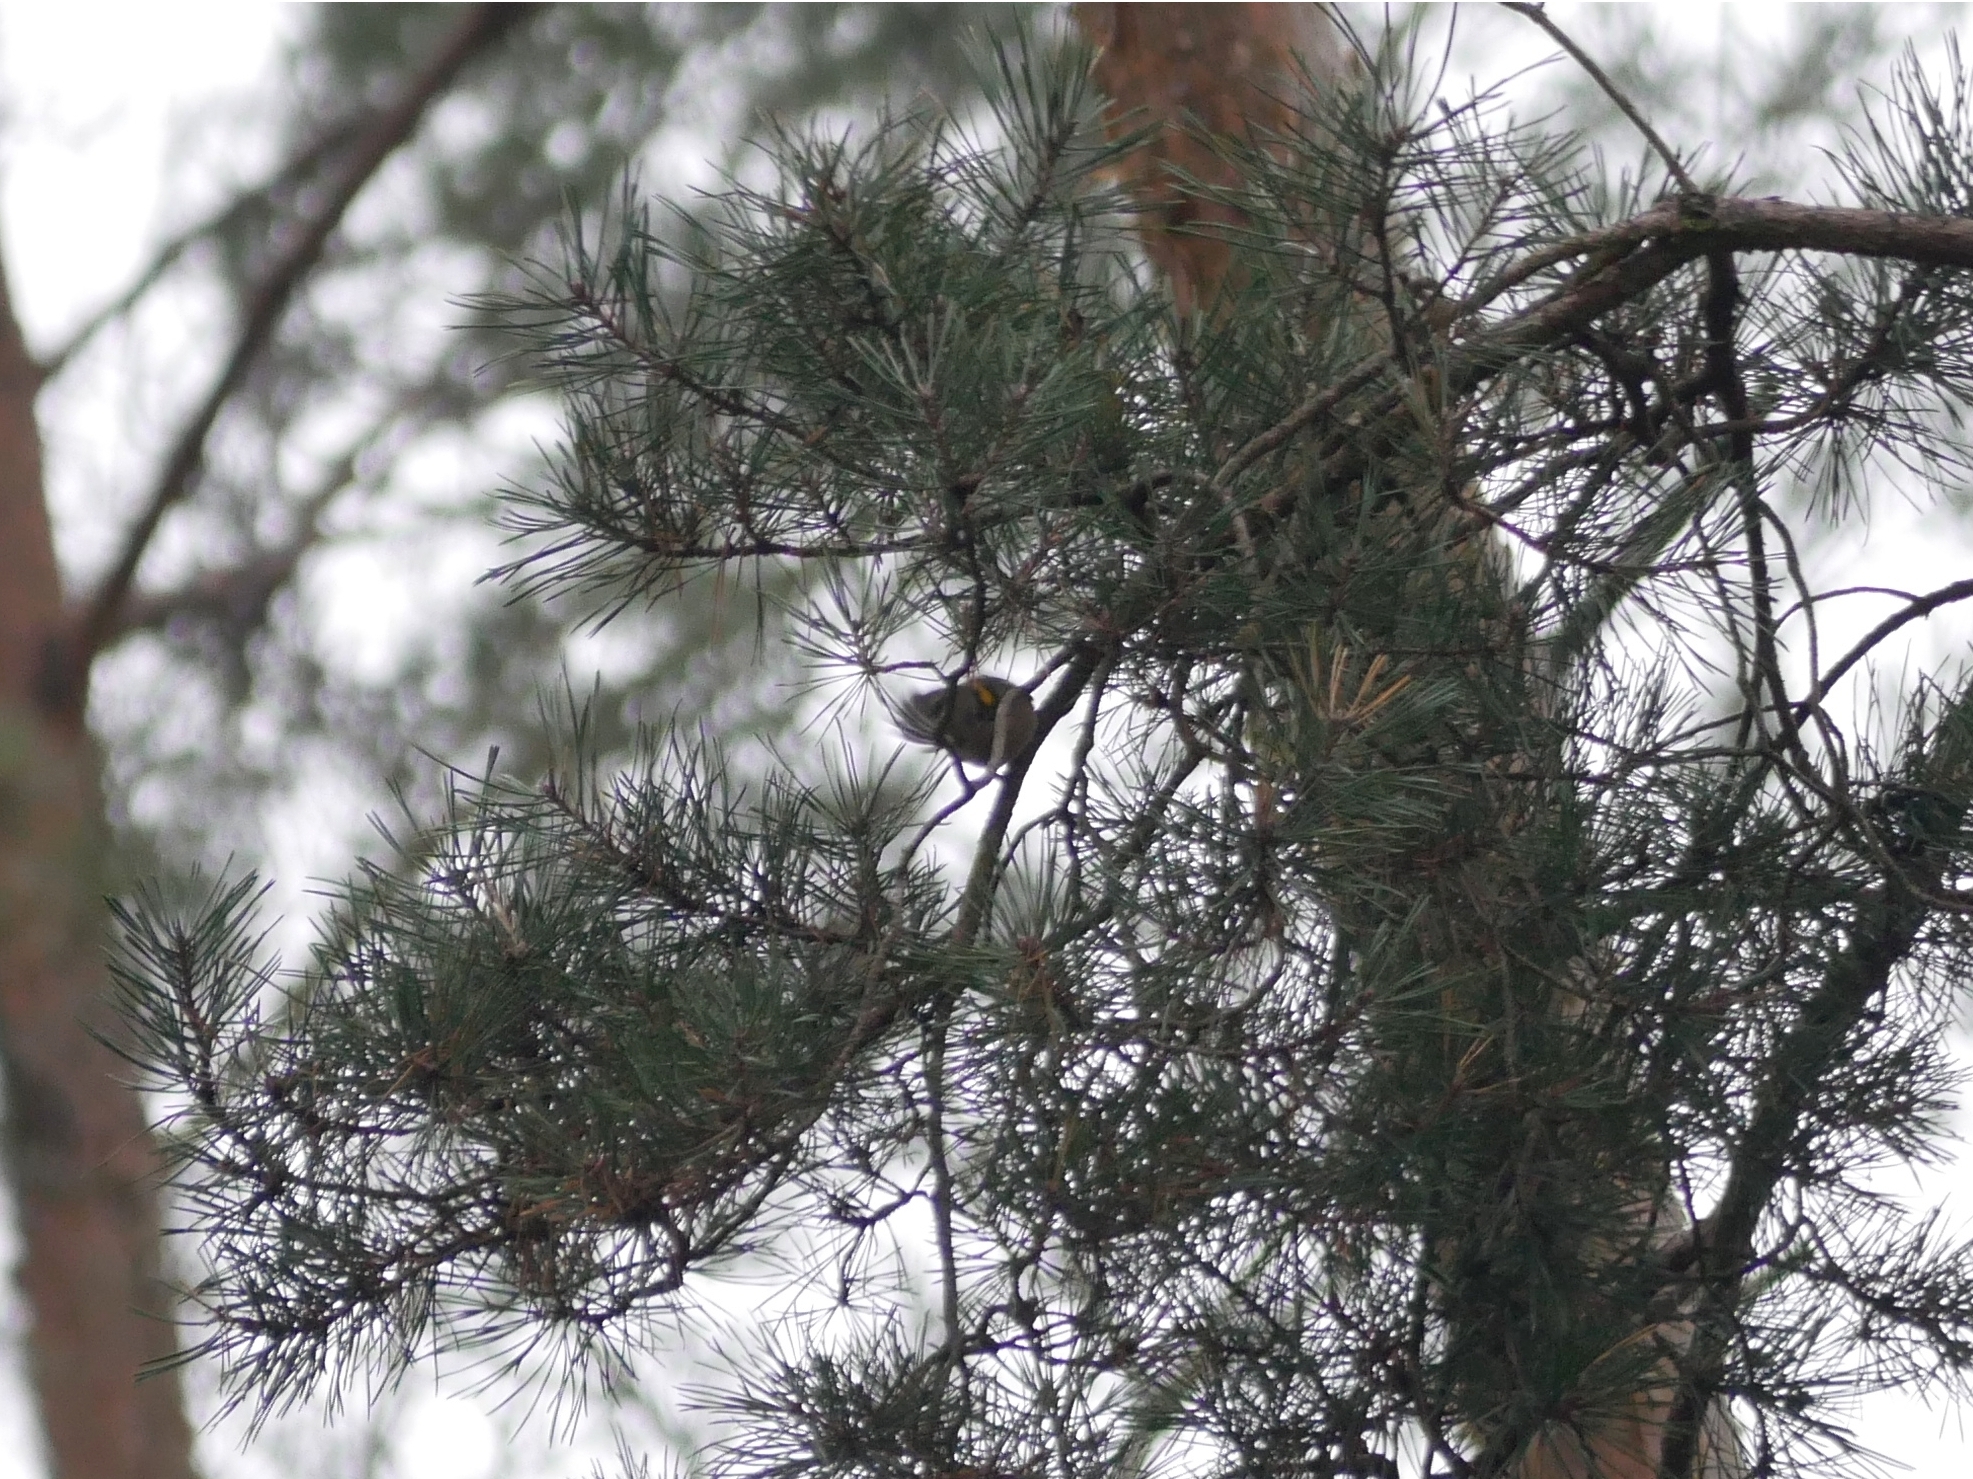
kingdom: Animalia
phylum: Chordata
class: Aves
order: Passeriformes
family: Regulidae
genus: Regulus
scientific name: Regulus regulus
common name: Goldcrest
